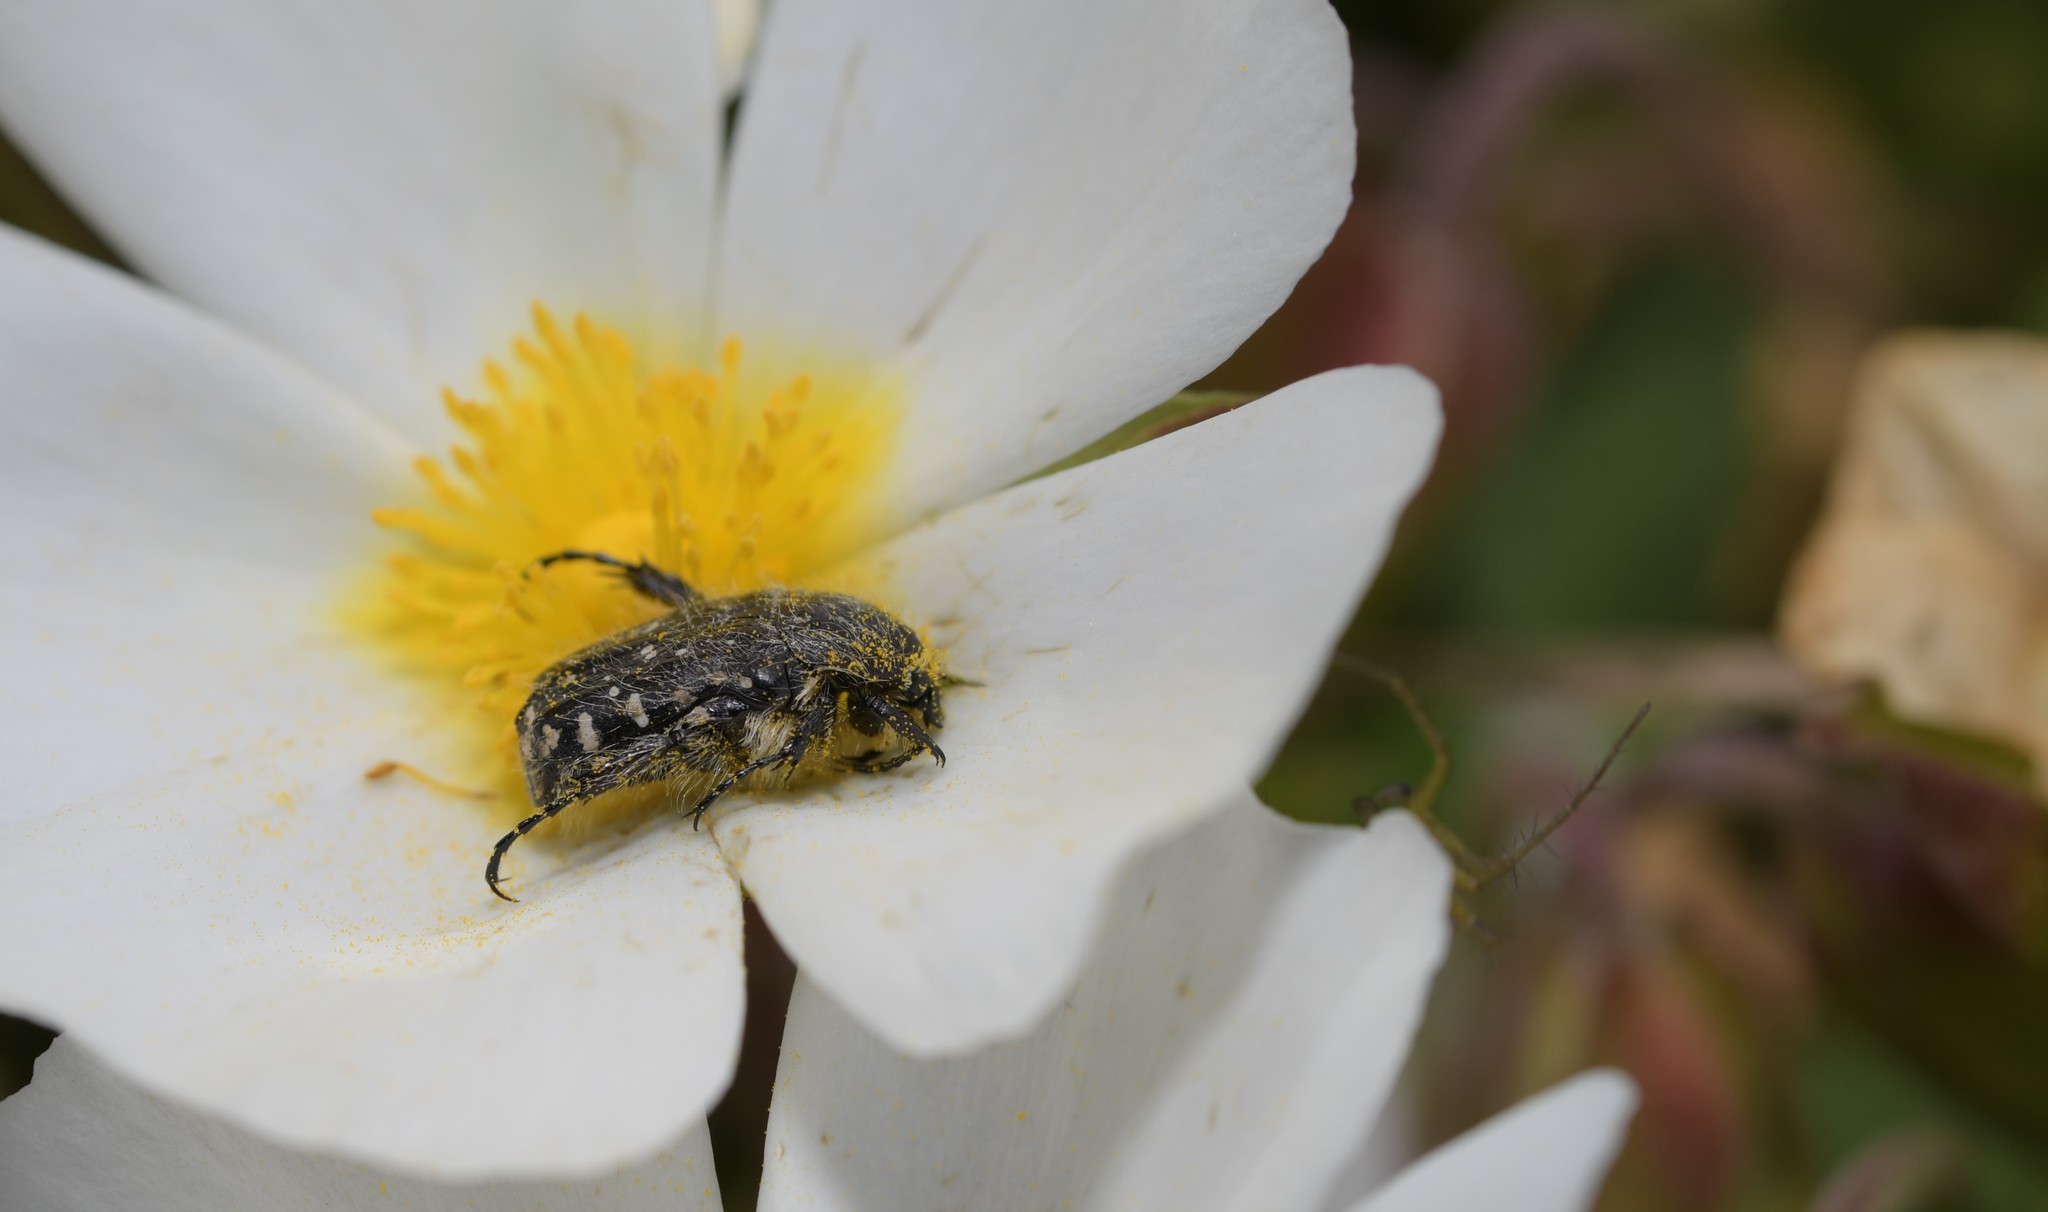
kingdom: Animalia
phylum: Arthropoda
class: Insecta
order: Coleoptera
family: Scarabaeidae
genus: Oxythyrea
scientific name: Oxythyrea funesta
